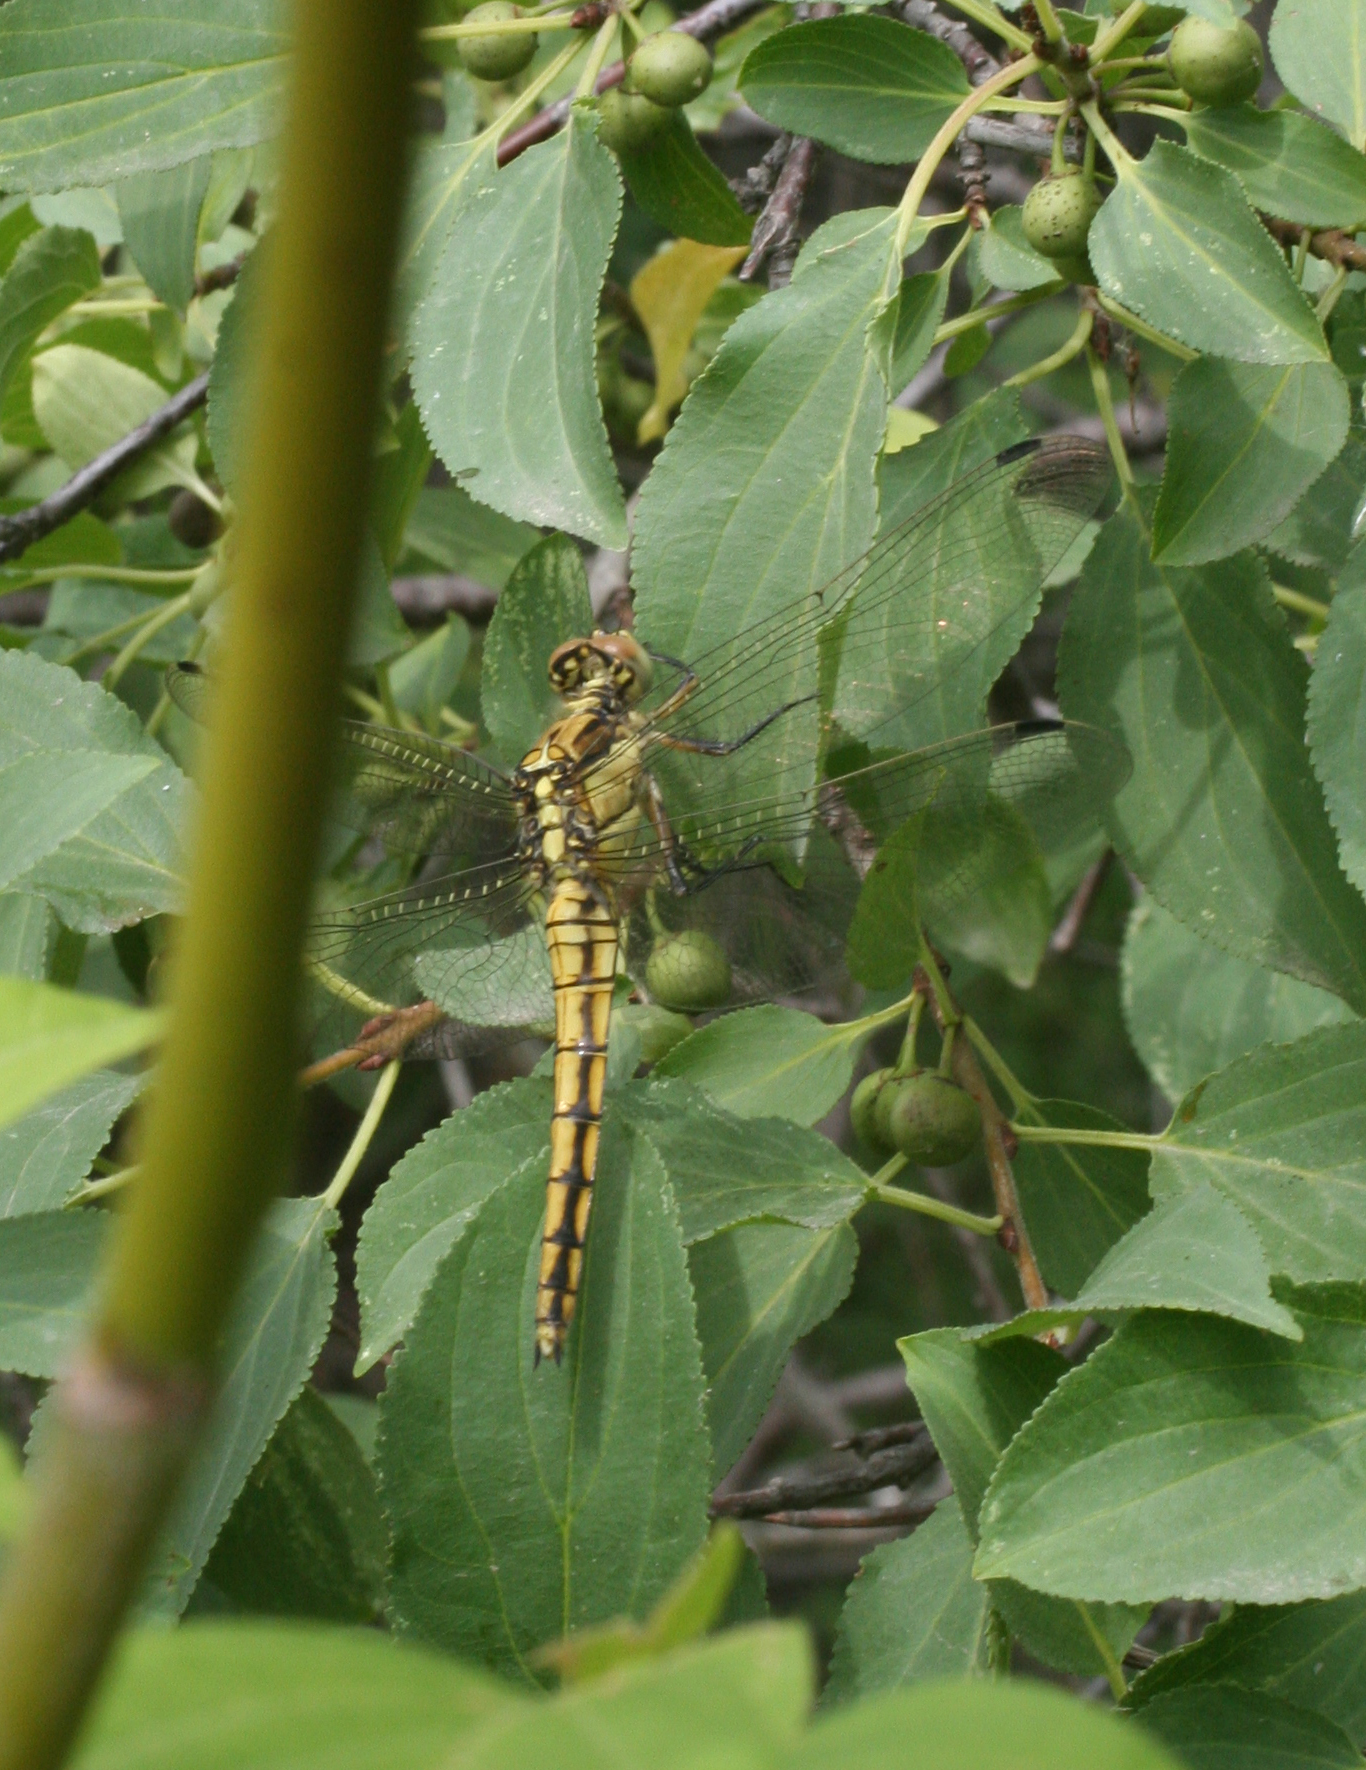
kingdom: Animalia
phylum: Arthropoda
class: Insecta
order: Odonata
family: Libellulidae
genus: Orthetrum
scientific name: Orthetrum cancellatum
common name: Black-tailed skimmer
